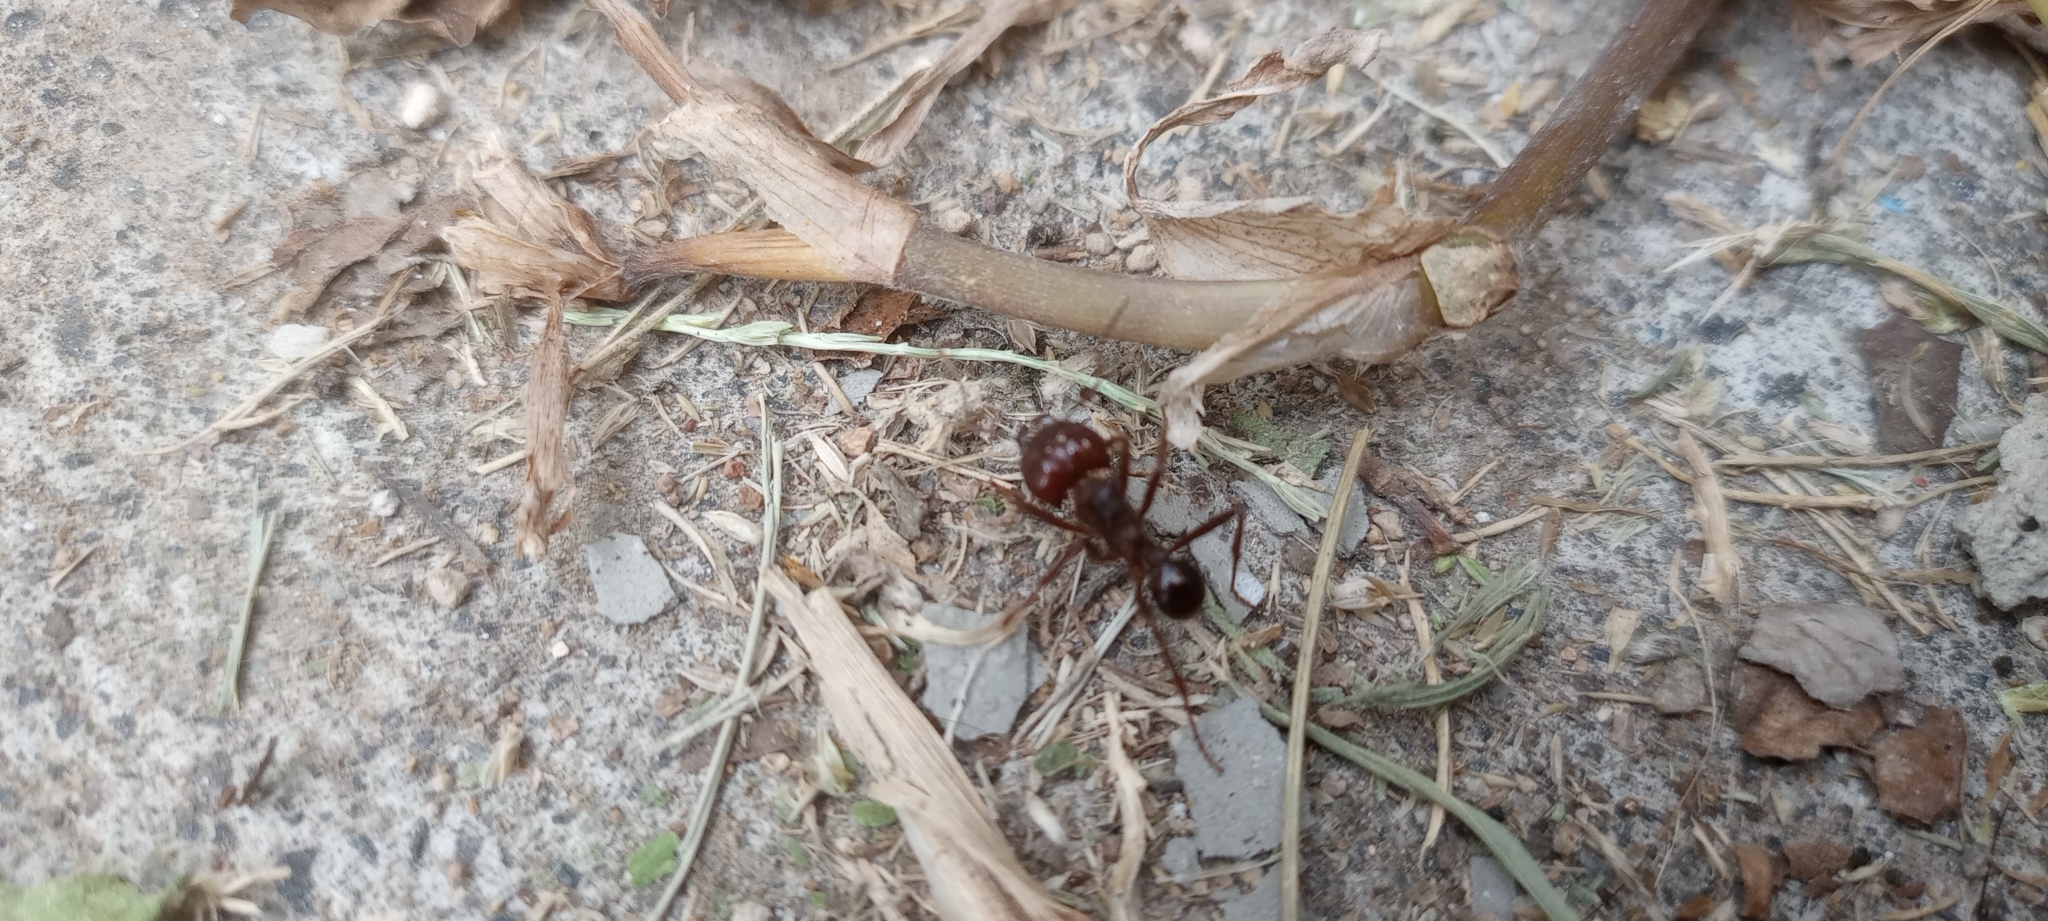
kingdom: Animalia
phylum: Arthropoda
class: Insecta
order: Hymenoptera
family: Formicidae
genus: Atta
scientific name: Atta mexicana
